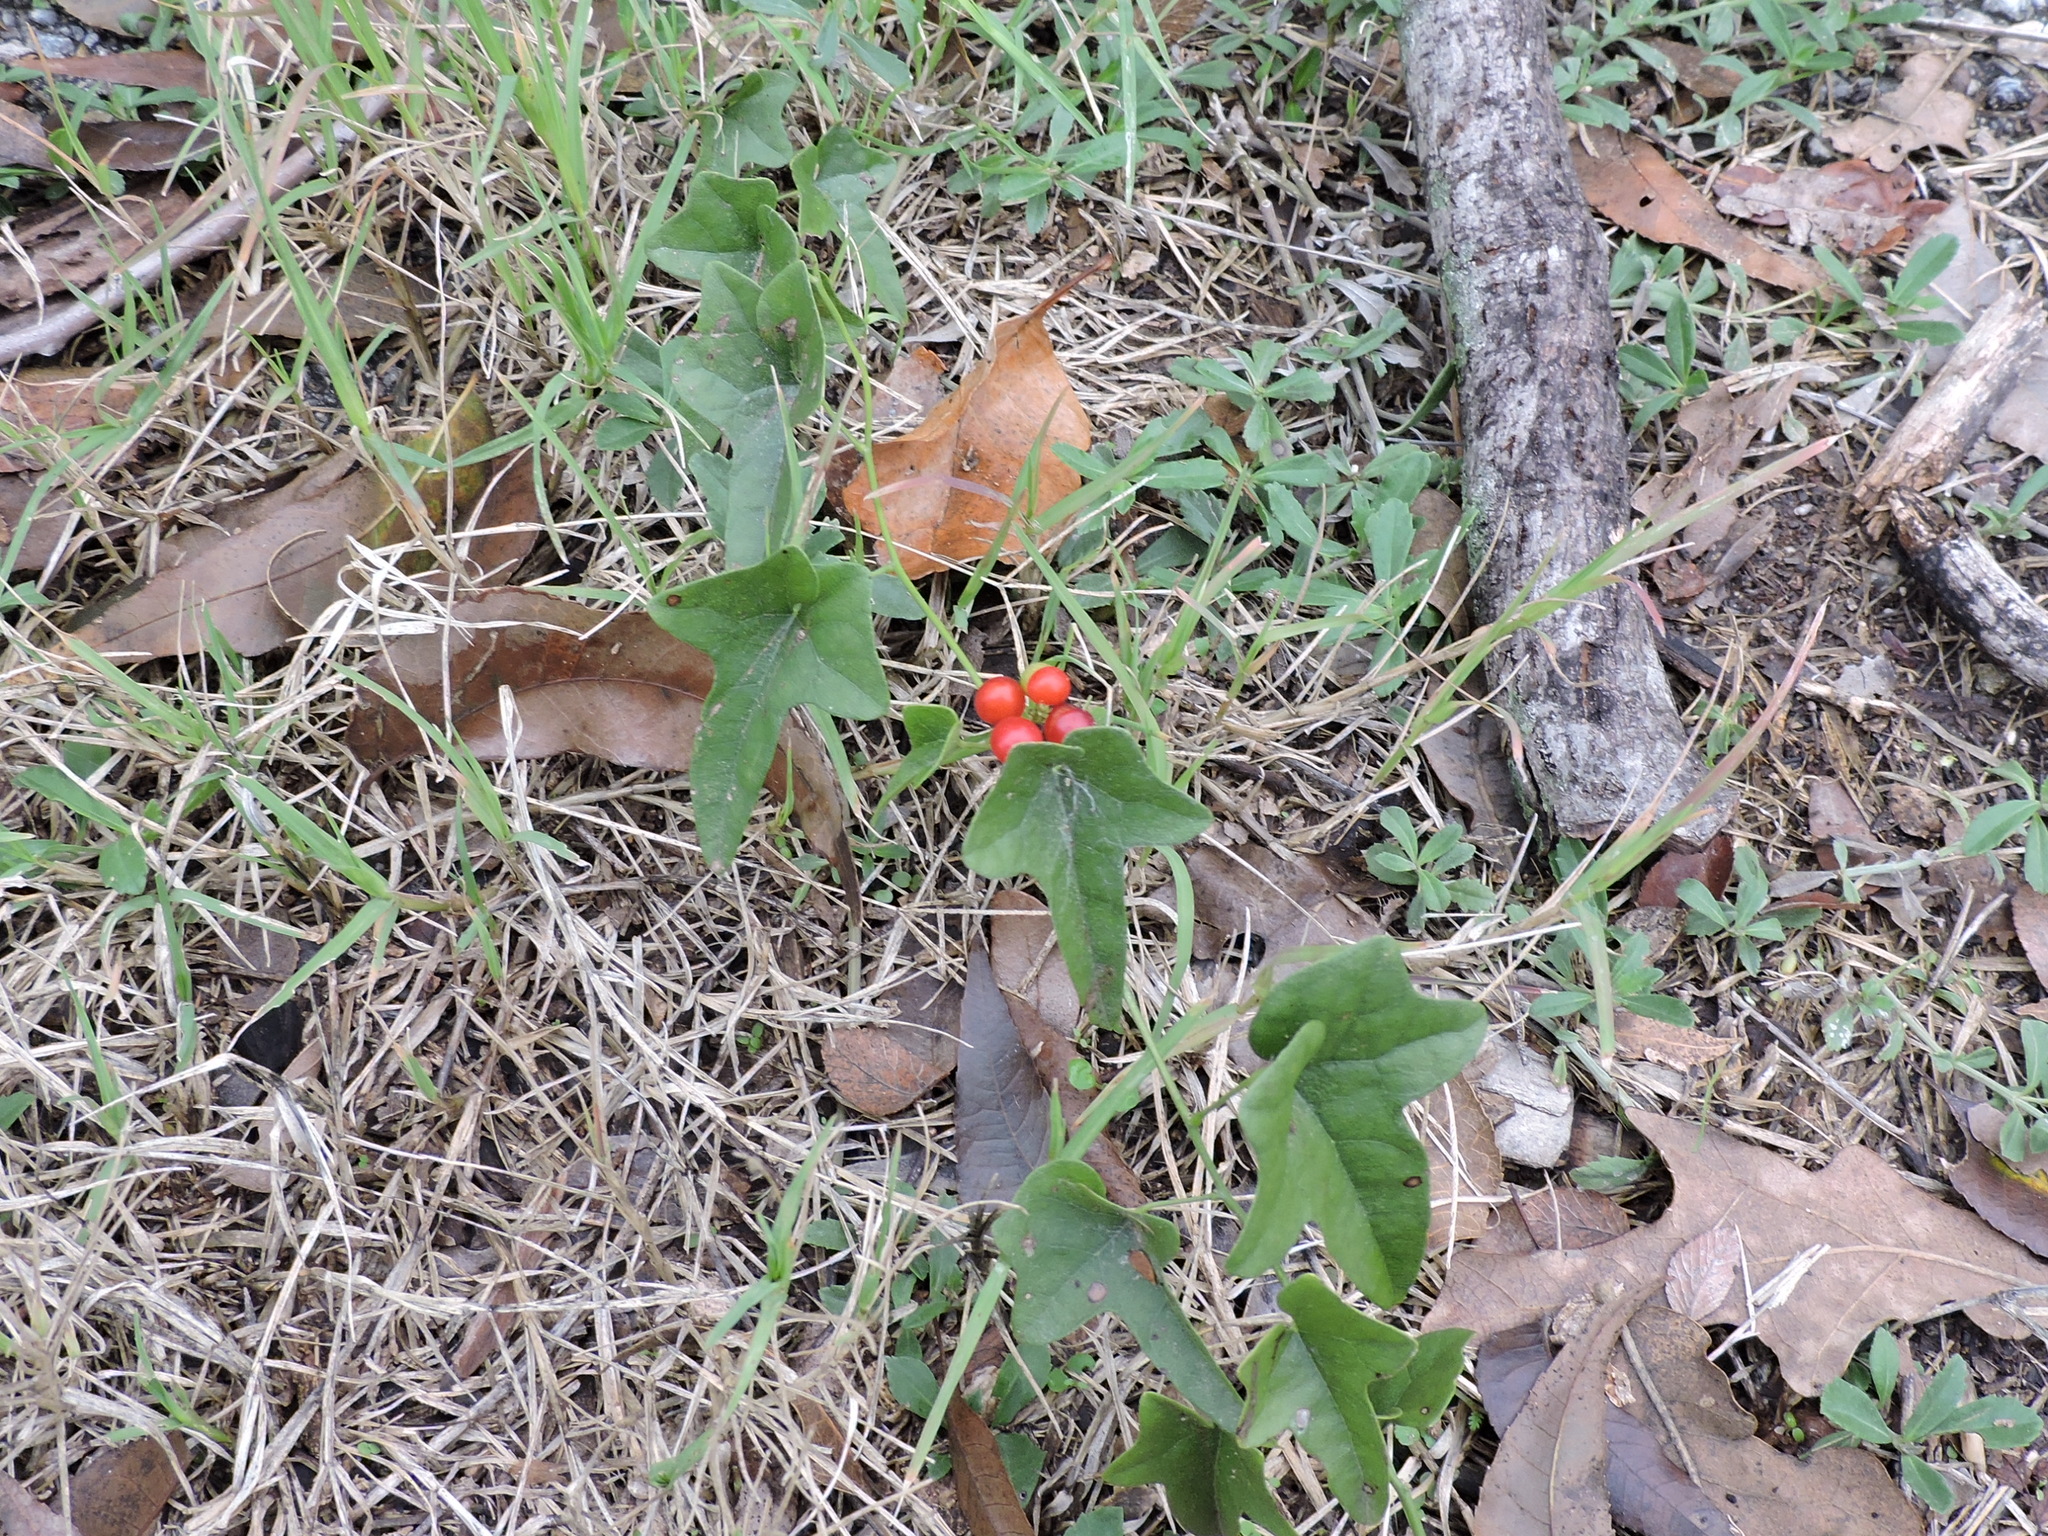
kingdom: Plantae
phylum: Tracheophyta
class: Magnoliopsida
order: Ranunculales
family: Menispermaceae
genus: Cocculus
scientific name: Cocculus carolinus
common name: Carolina moonseed
